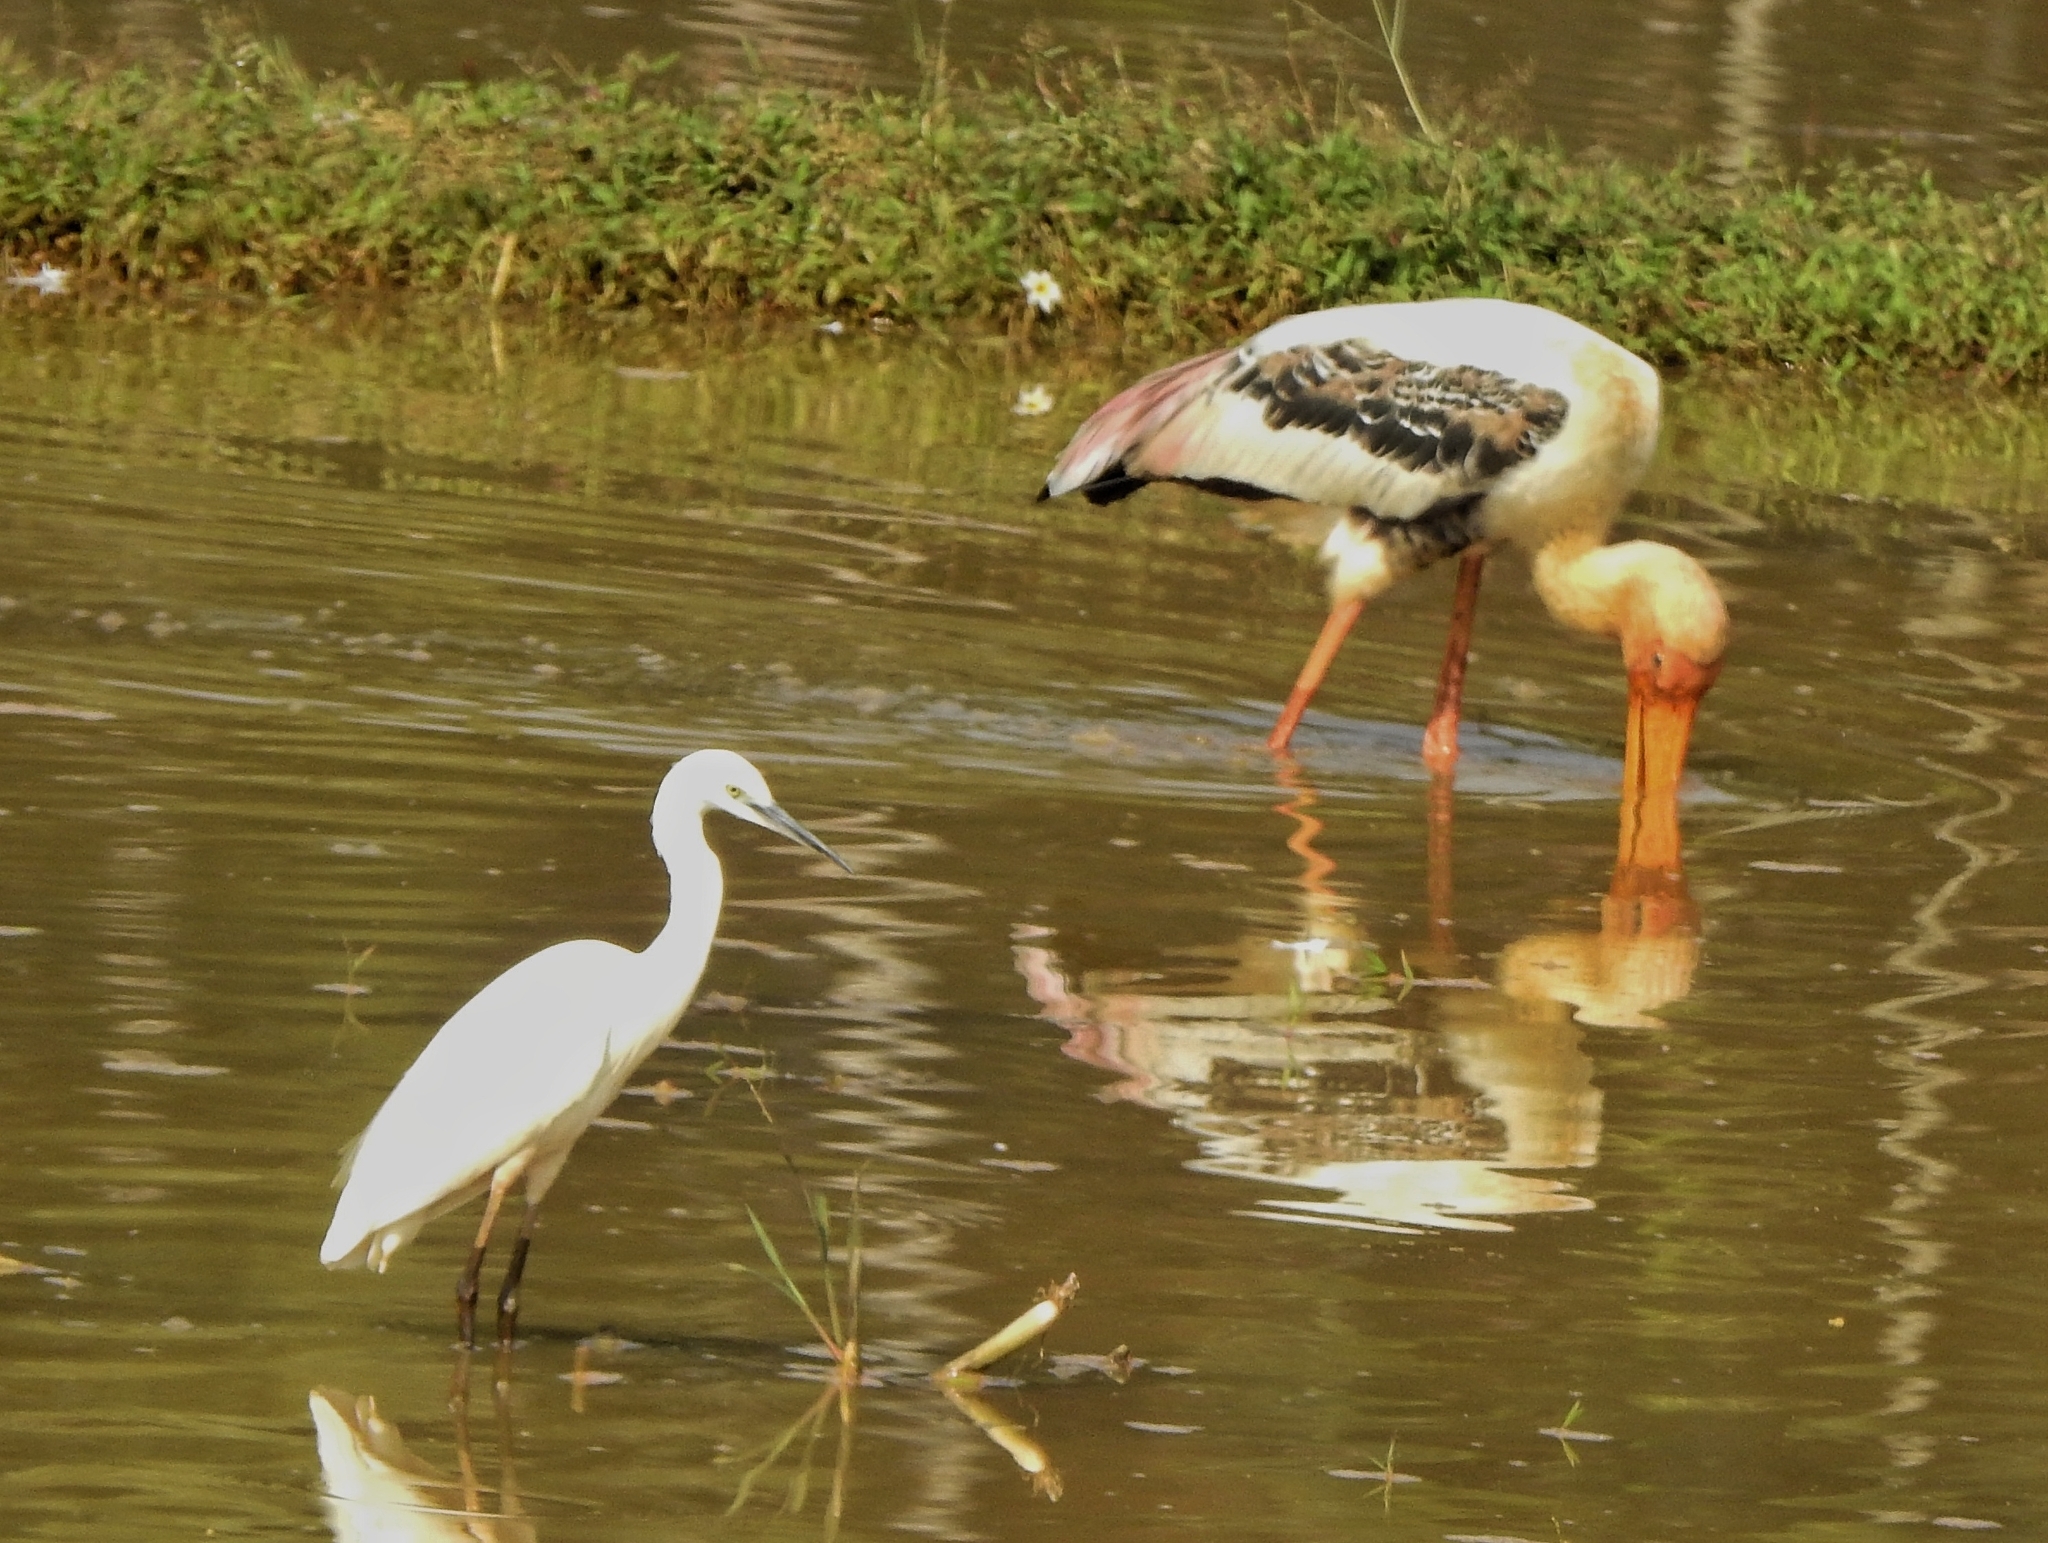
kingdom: Animalia
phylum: Chordata
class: Aves
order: Pelecaniformes
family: Ardeidae
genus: Egretta
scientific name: Egretta garzetta
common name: Little egret
